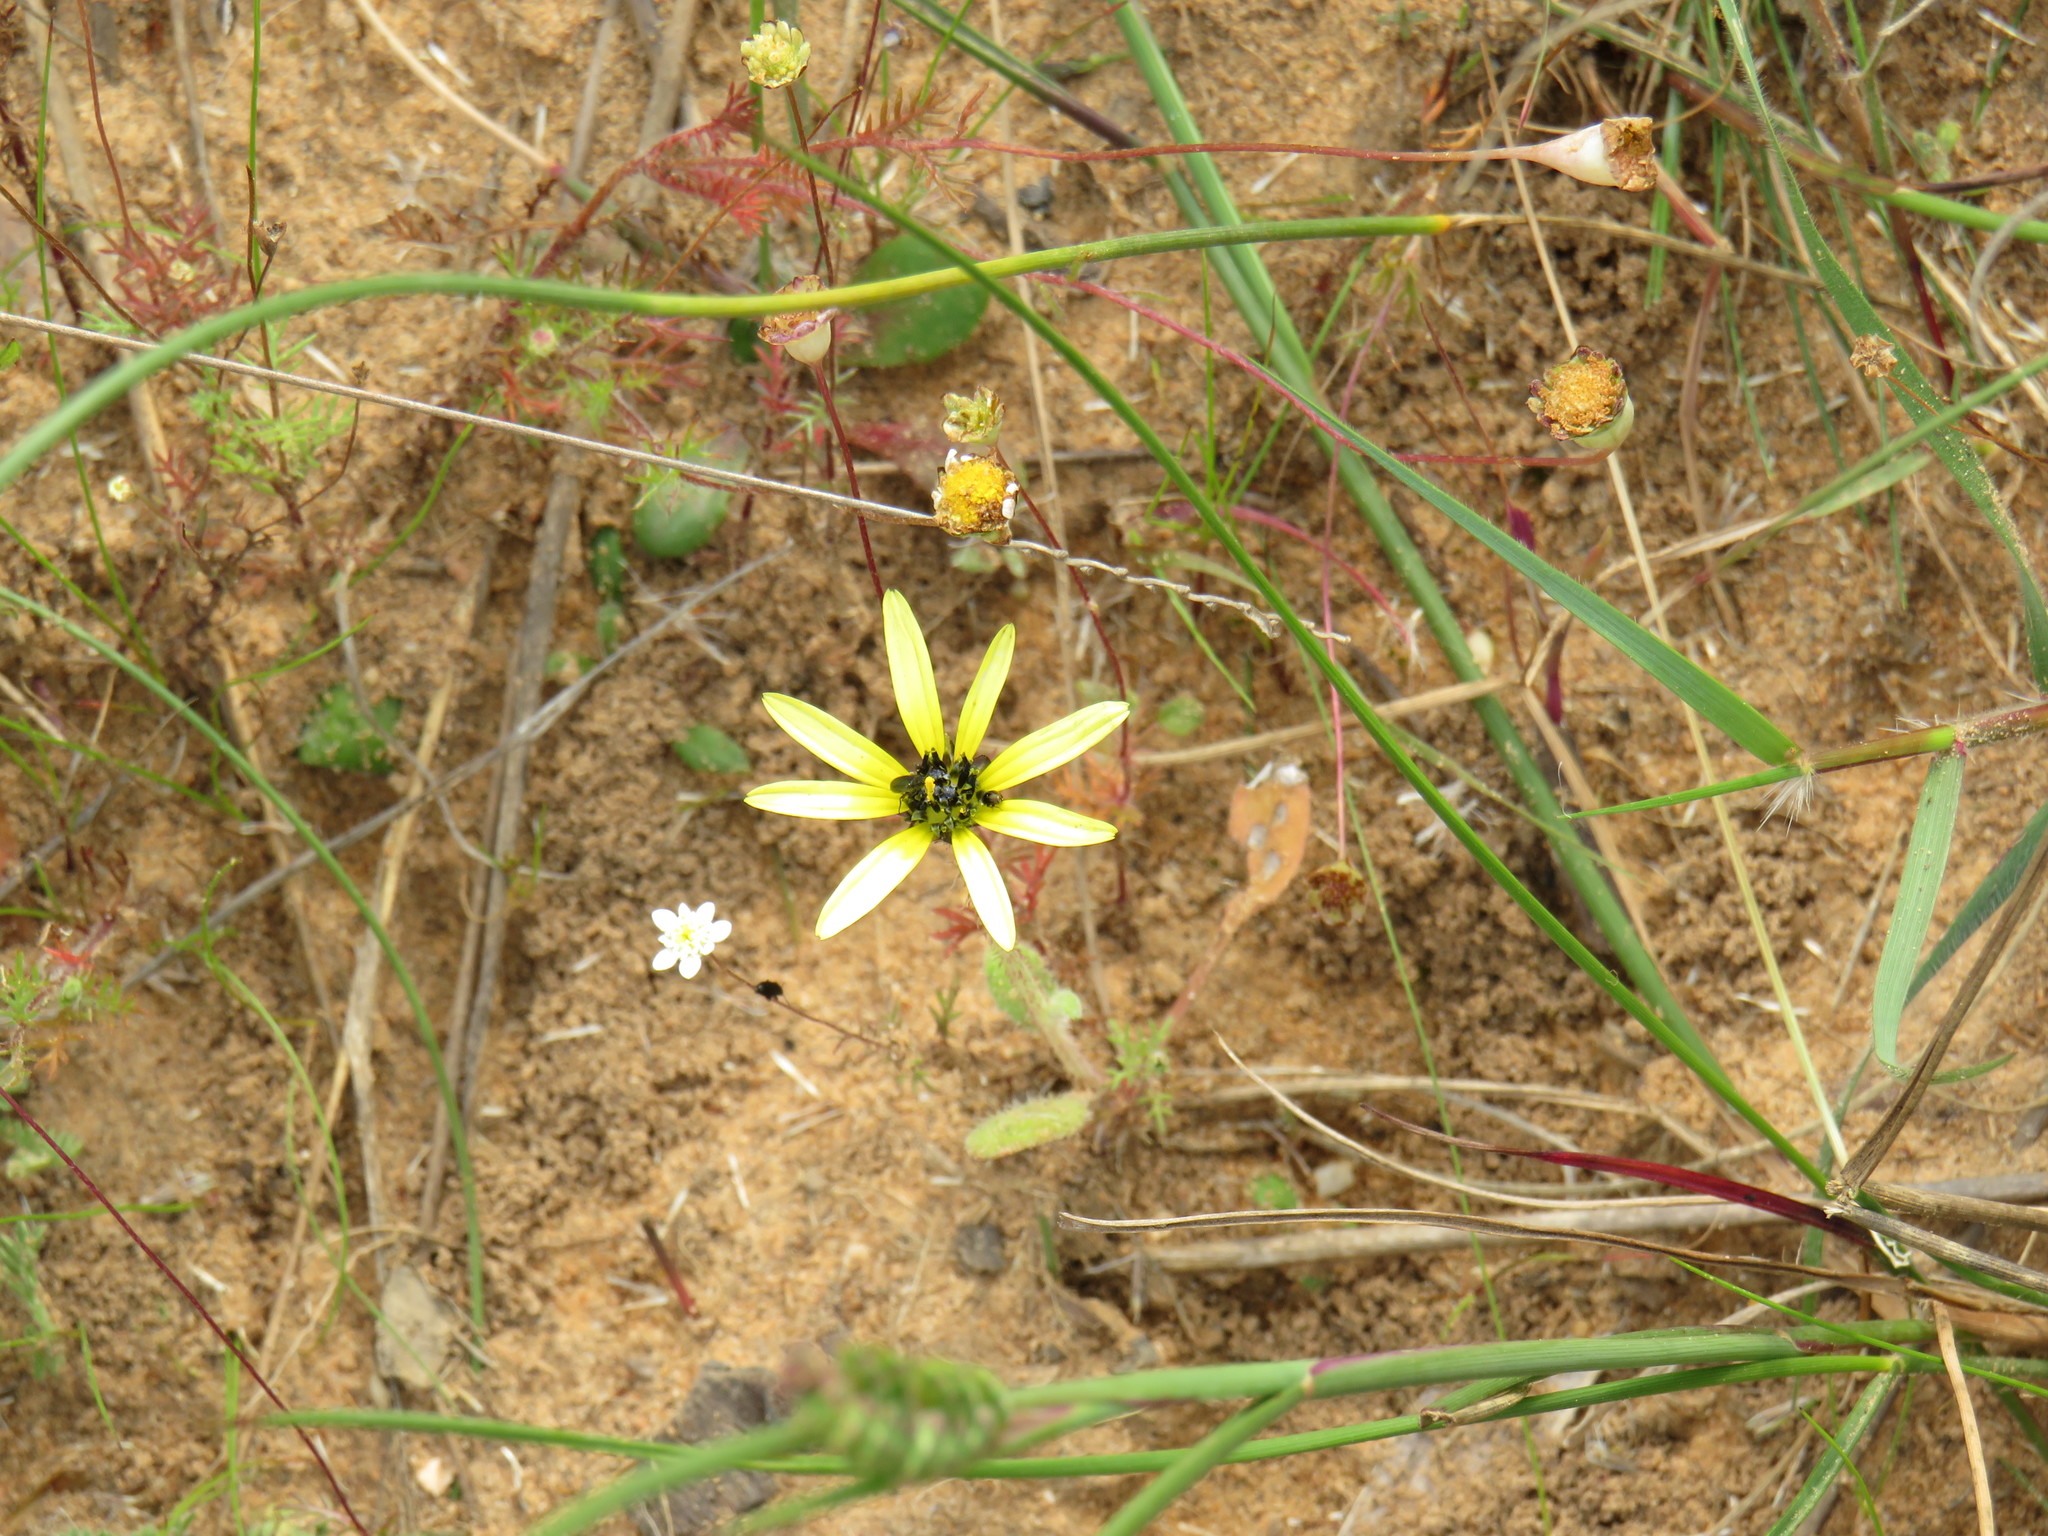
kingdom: Plantae
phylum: Tracheophyta
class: Magnoliopsida
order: Asterales
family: Asteraceae
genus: Arctotheca
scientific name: Arctotheca calendula
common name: Capeweed
